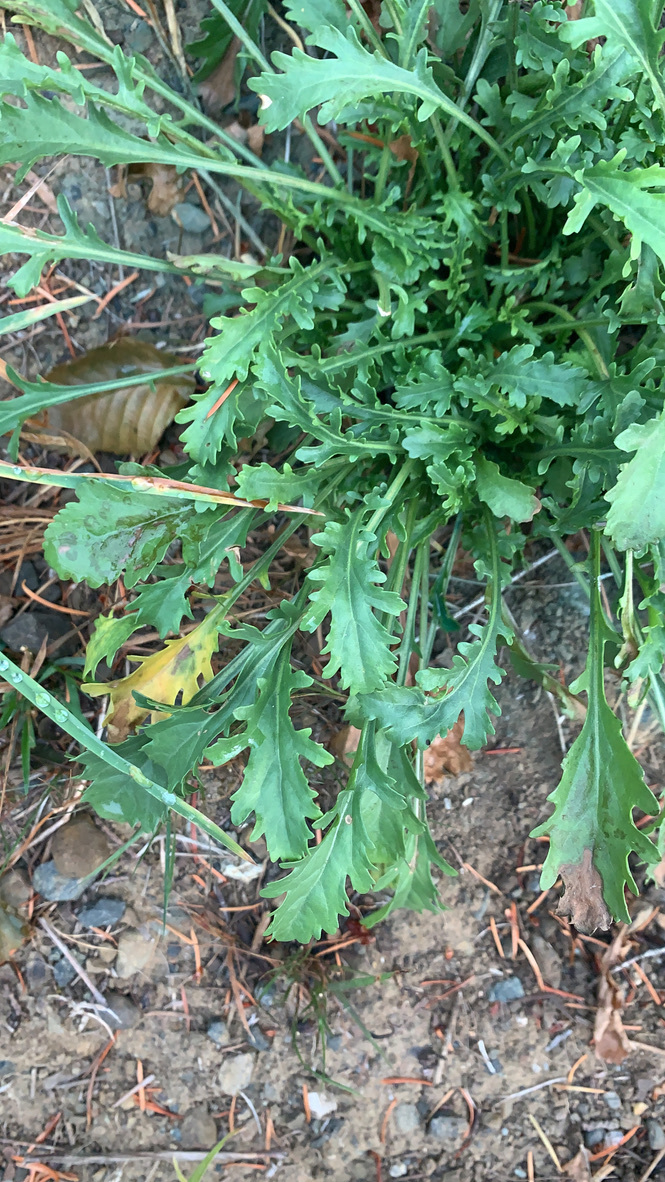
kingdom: Plantae
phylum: Tracheophyta
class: Magnoliopsida
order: Asterales
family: Asteraceae
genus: Leucanthemum
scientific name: Leucanthemum vulgare
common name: Oxeye daisy
